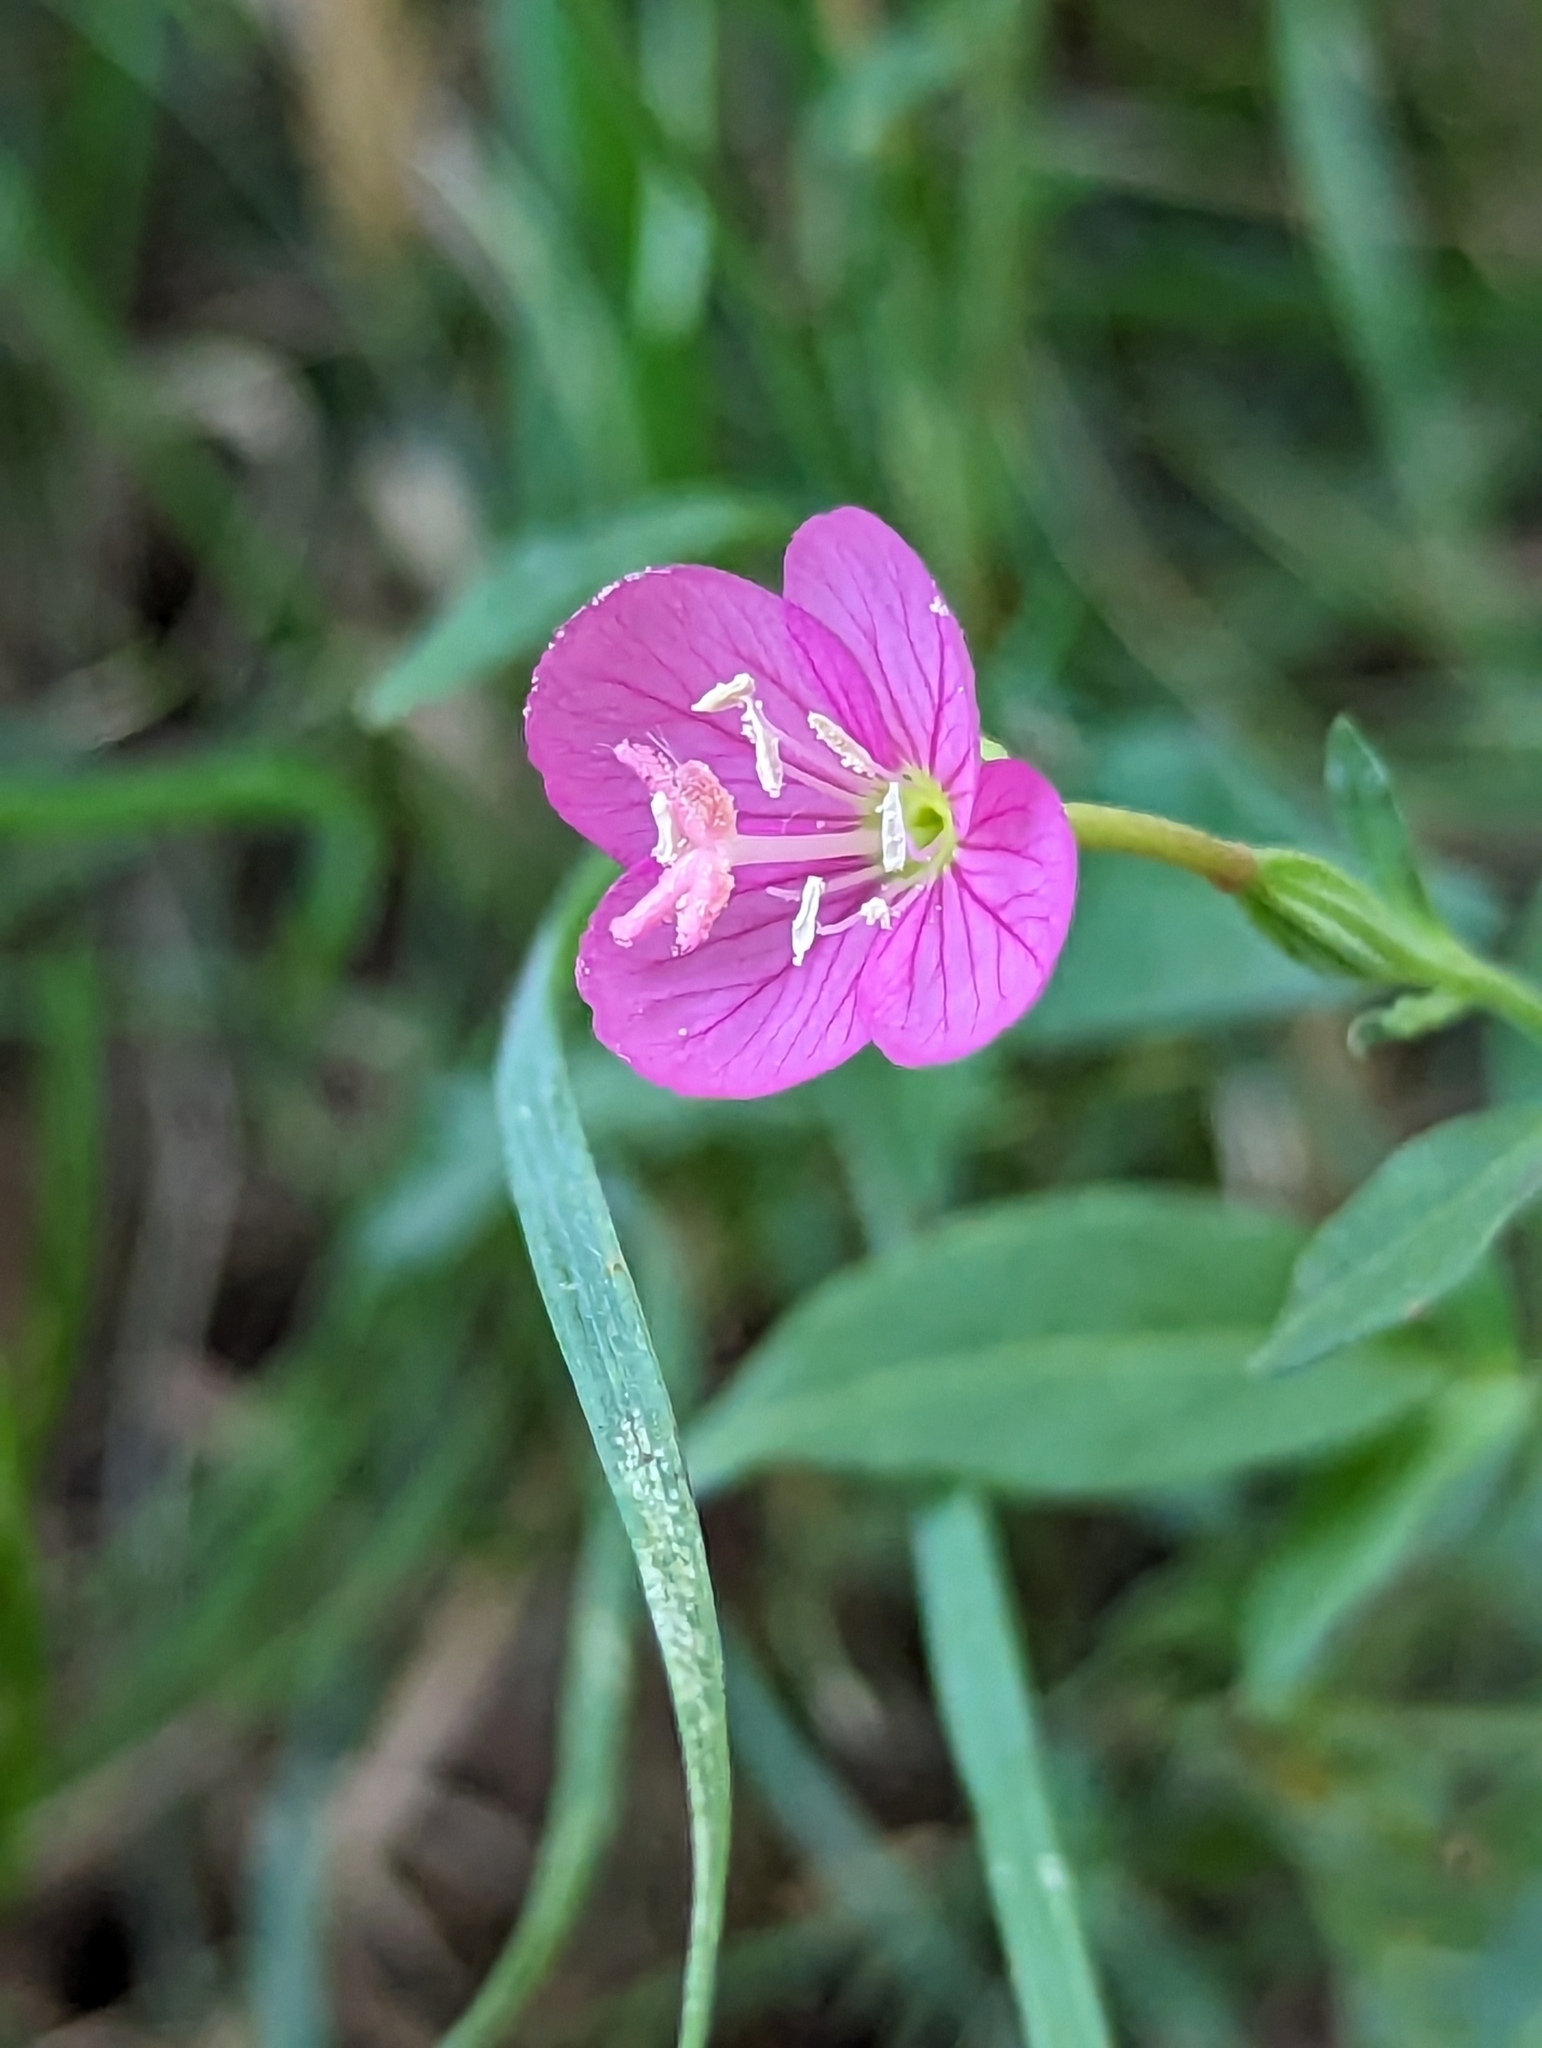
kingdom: Plantae
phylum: Tracheophyta
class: Magnoliopsida
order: Myrtales
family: Onagraceae
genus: Oenothera
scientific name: Oenothera platanorum
